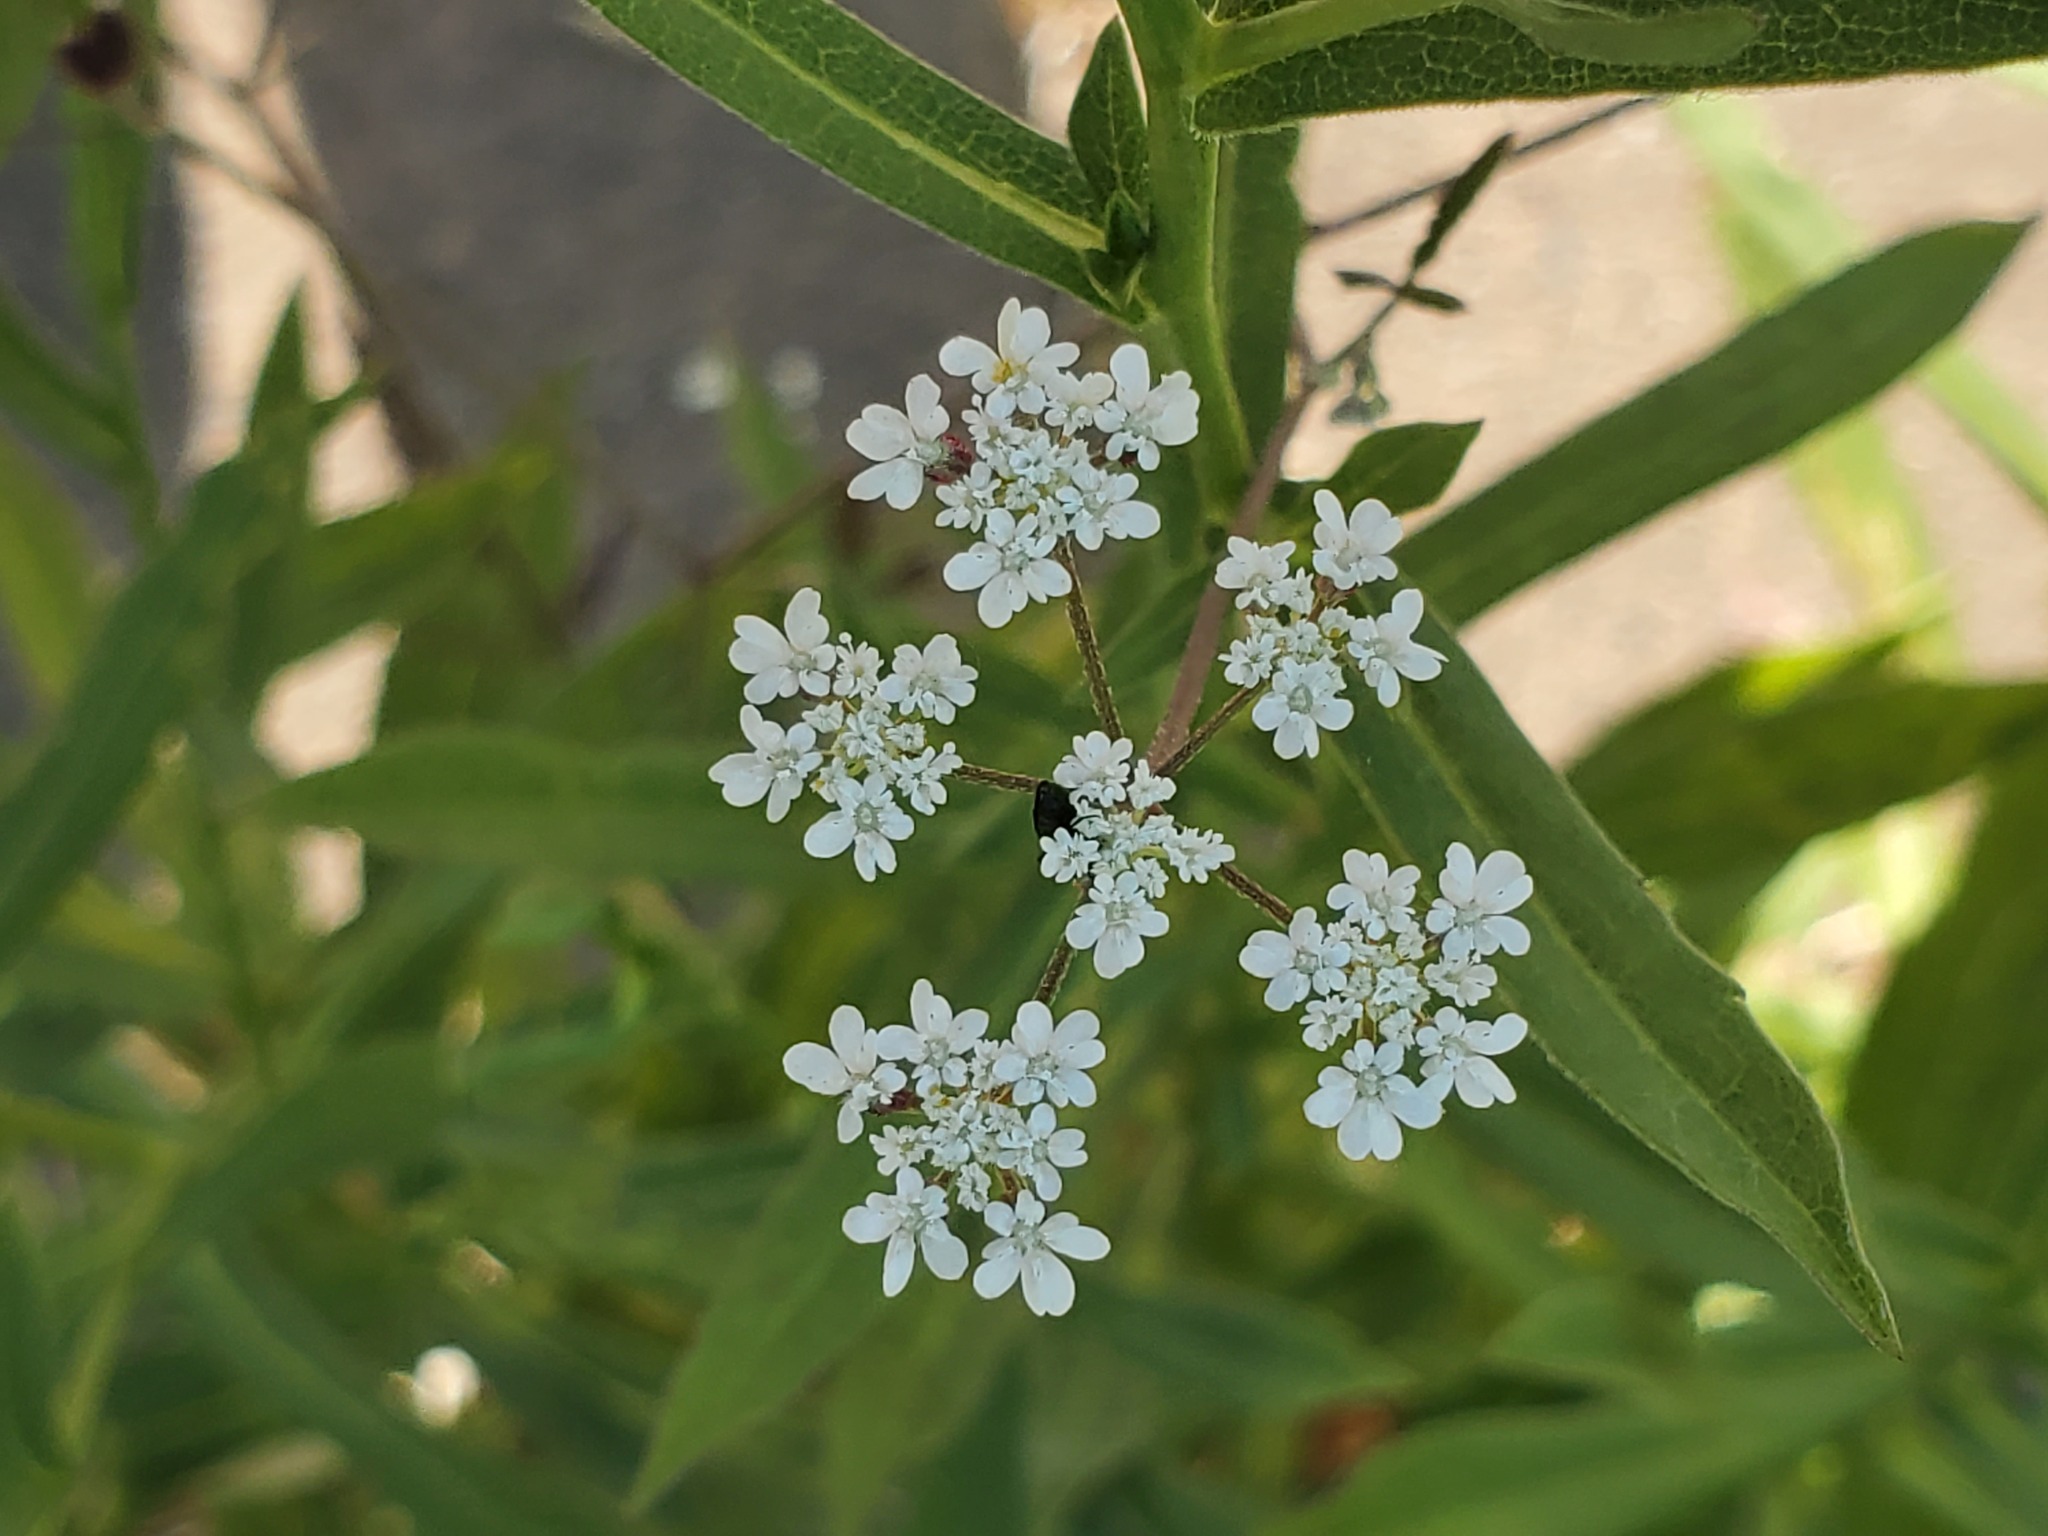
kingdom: Plantae
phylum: Tracheophyta
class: Magnoliopsida
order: Apiales
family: Apiaceae
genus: Torilis
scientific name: Torilis arvensis
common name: Spreading hedge-parsley
